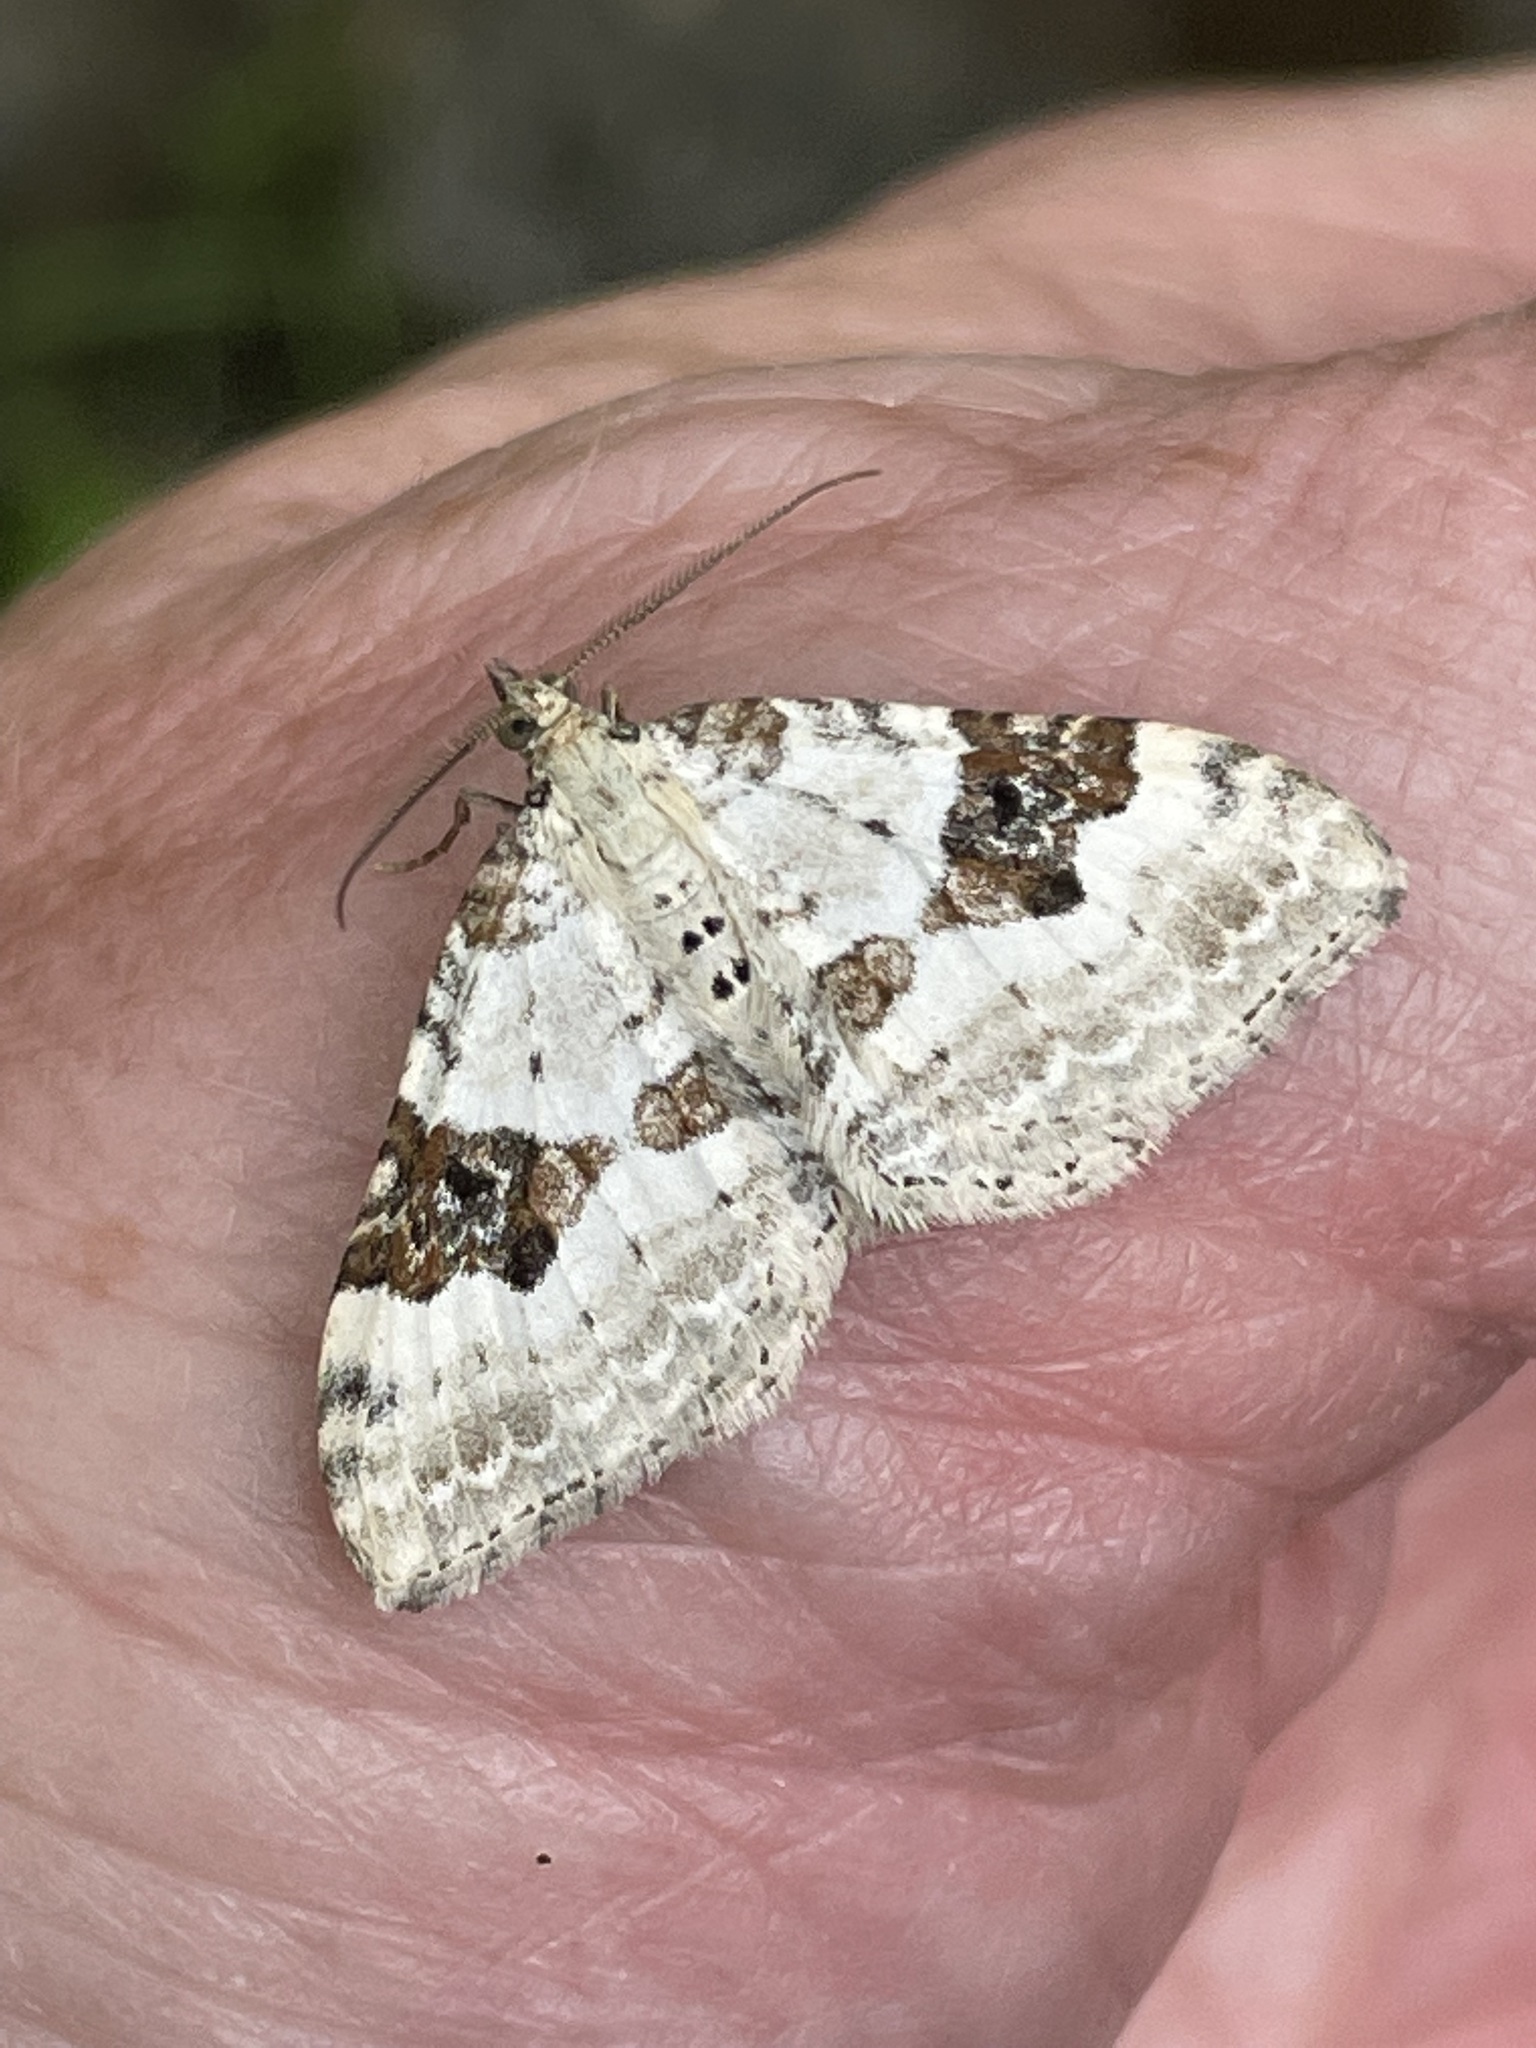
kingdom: Animalia
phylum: Arthropoda
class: Insecta
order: Lepidoptera
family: Geometridae
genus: Xanthorhoe
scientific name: Xanthorhoe montanata
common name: Silver-ground carpet
